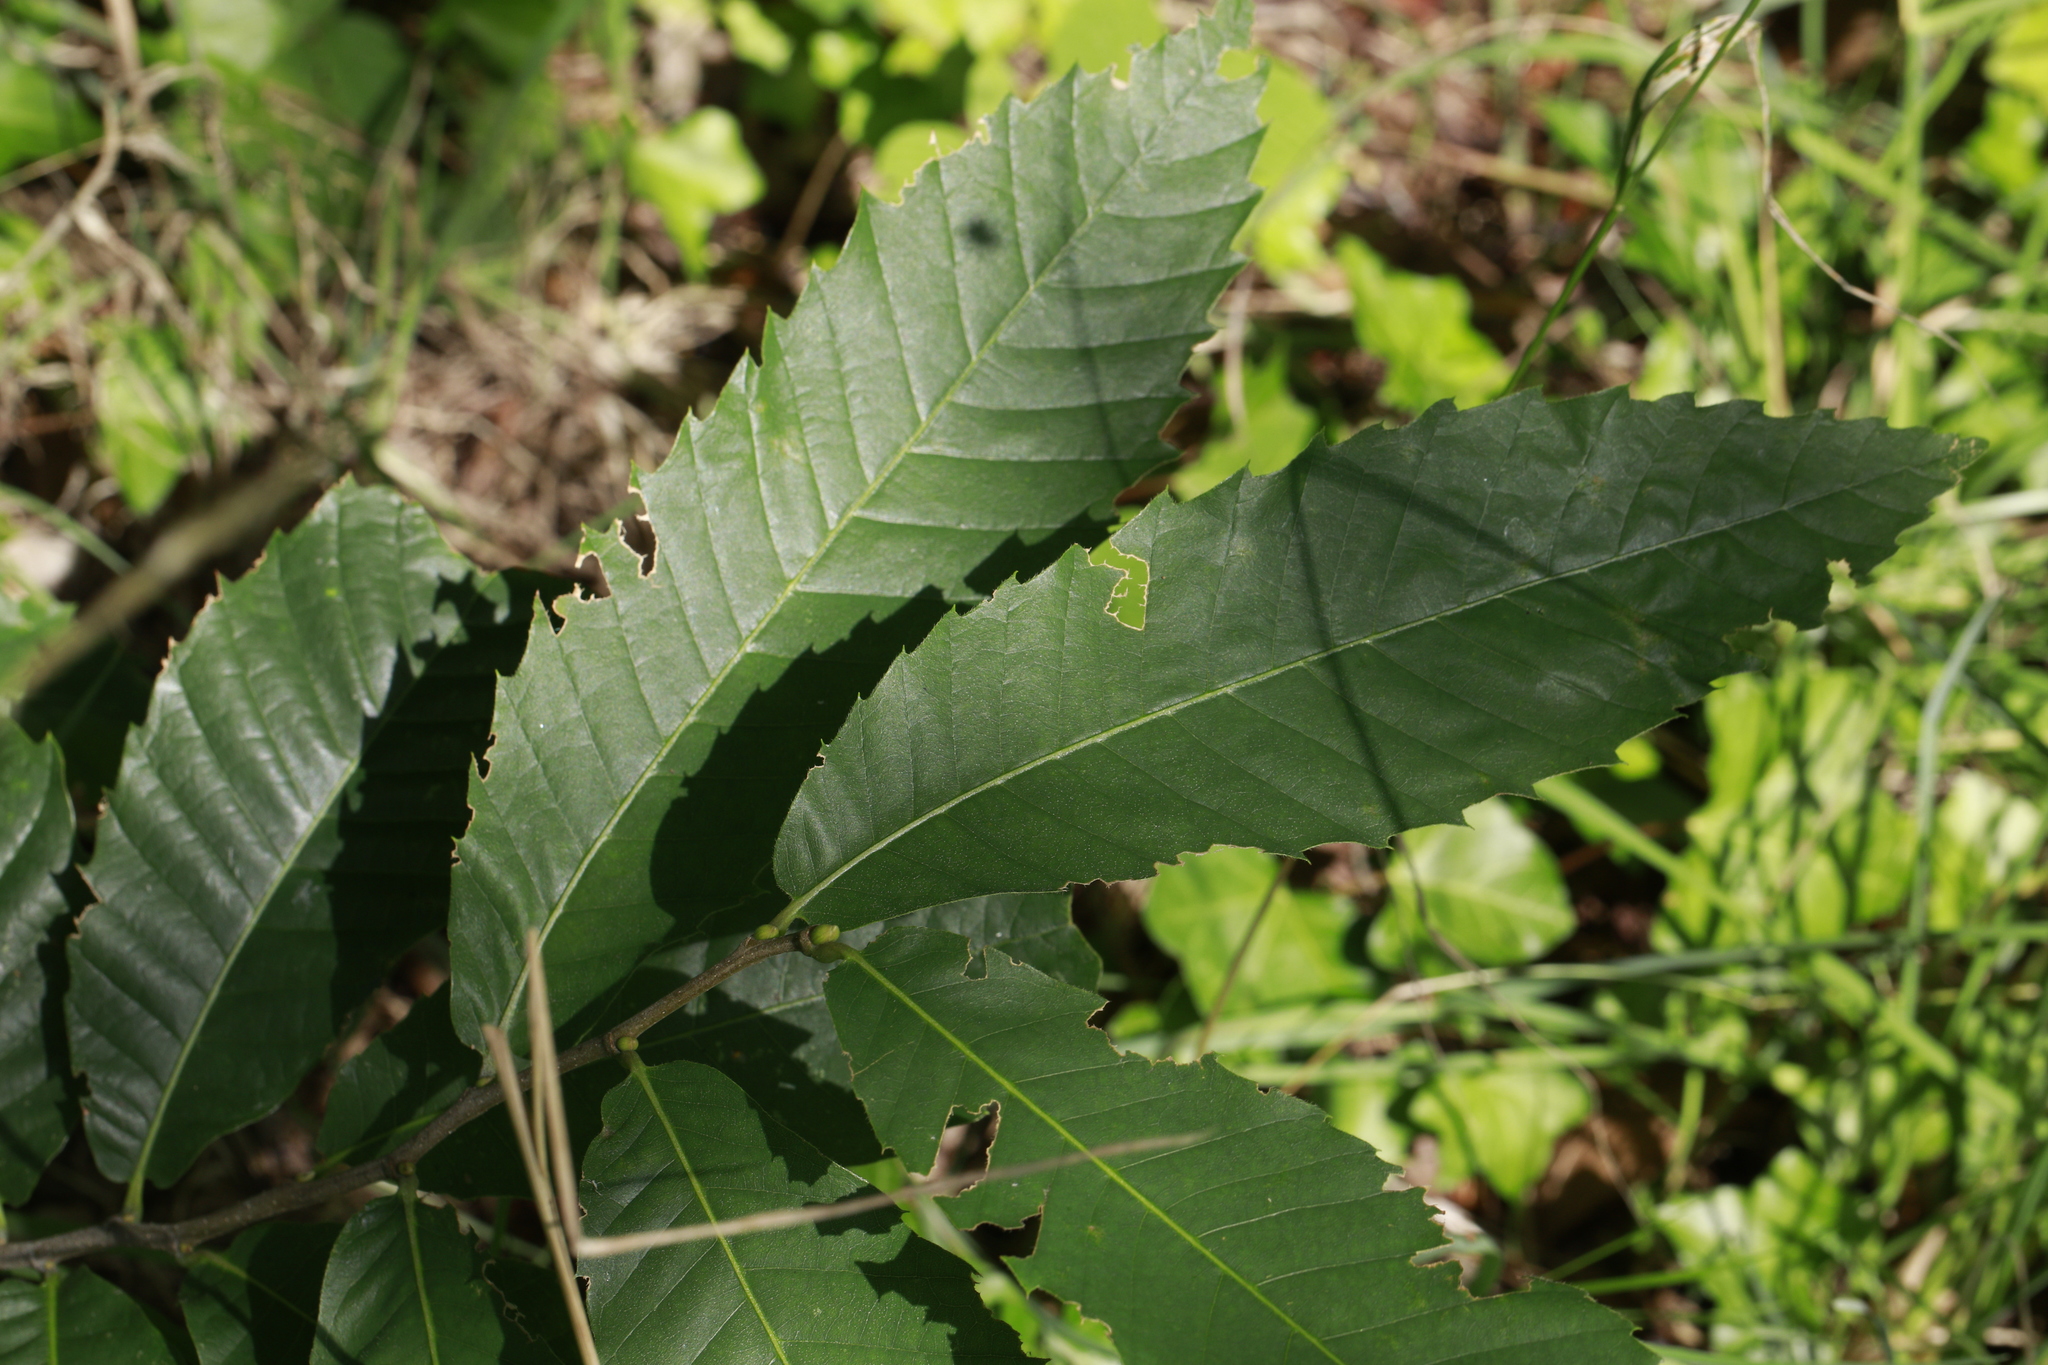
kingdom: Plantae
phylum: Tracheophyta
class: Magnoliopsida
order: Fagales
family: Fagaceae
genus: Castanea
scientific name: Castanea sativa
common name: Sweet chestnut
